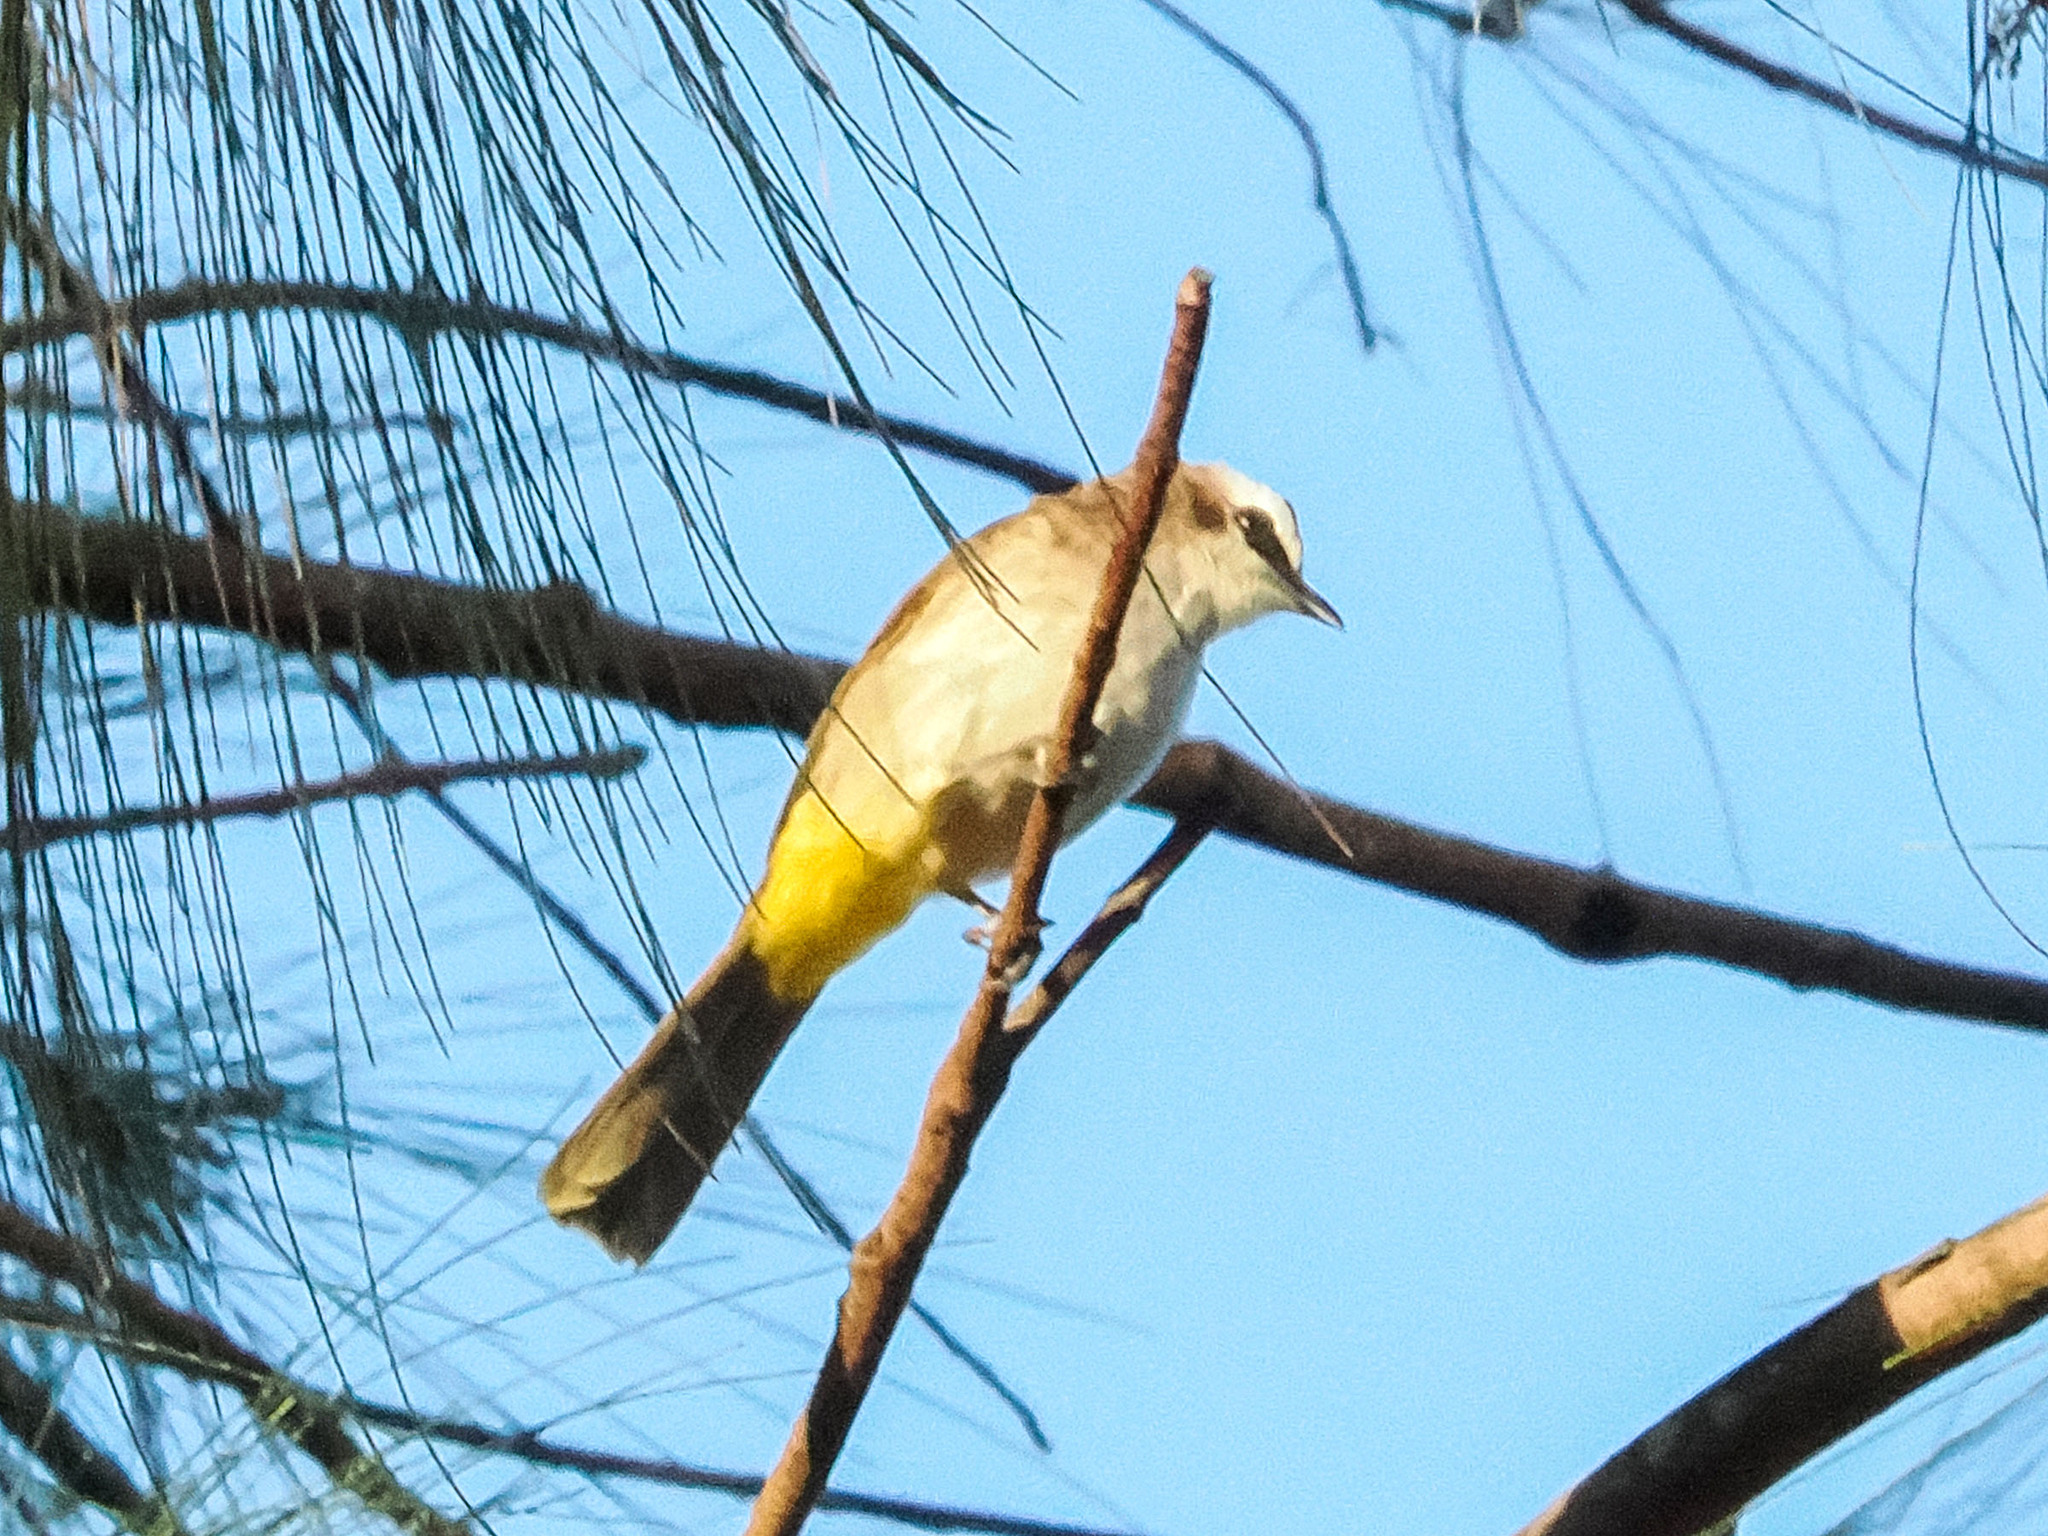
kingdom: Animalia
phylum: Chordata
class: Aves
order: Passeriformes
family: Pycnonotidae
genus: Pycnonotus
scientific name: Pycnonotus goiavier
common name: Yellow-vented bulbul
